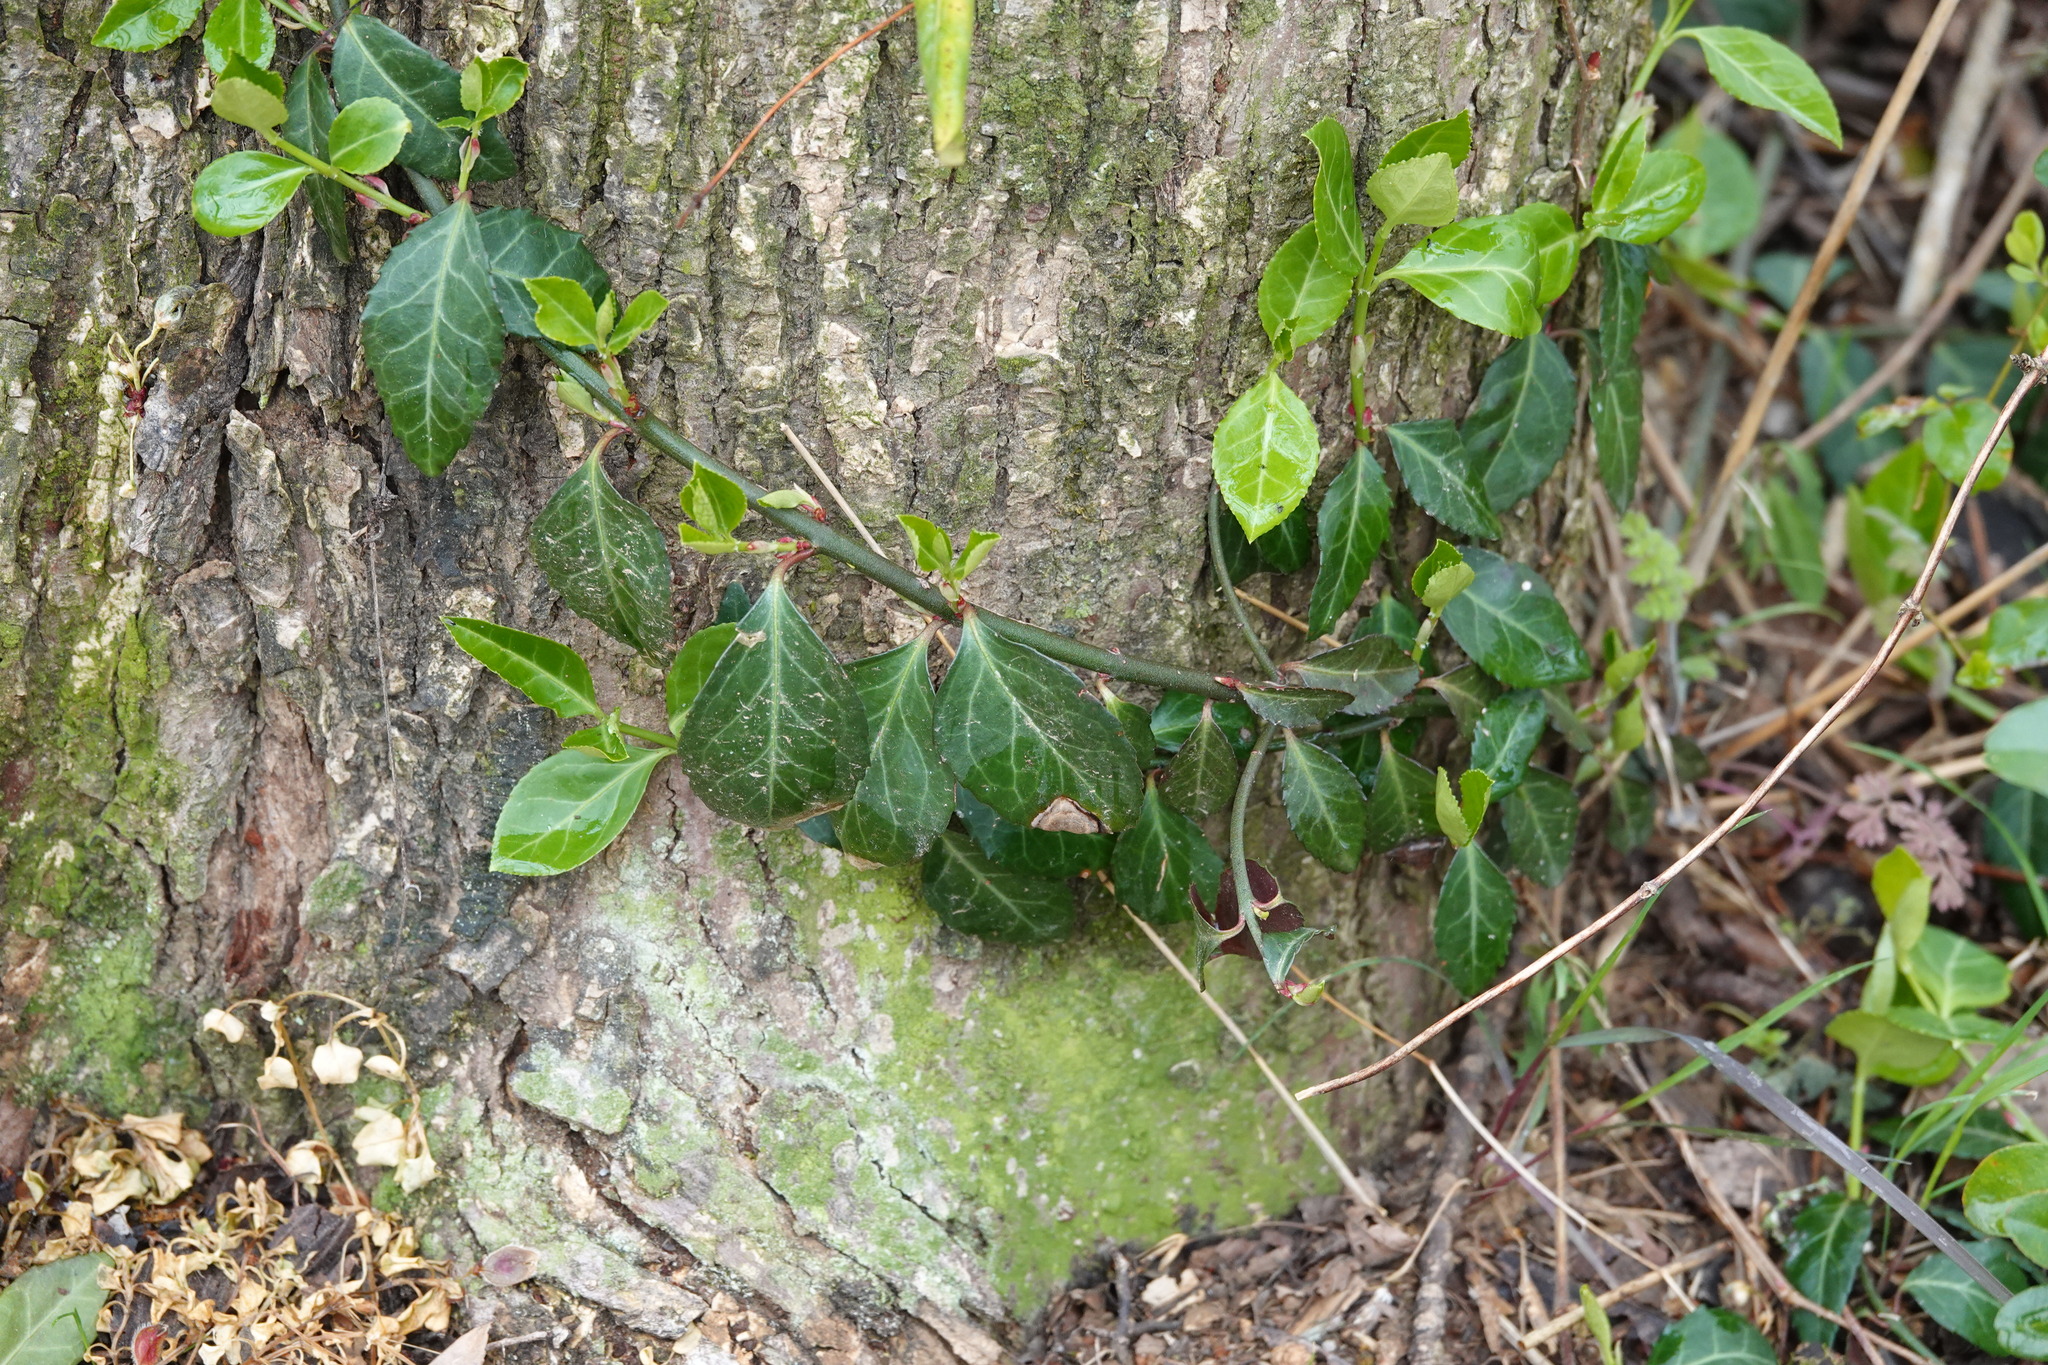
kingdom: Plantae
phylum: Tracheophyta
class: Magnoliopsida
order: Celastrales
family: Celastraceae
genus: Euonymus
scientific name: Euonymus fortunei
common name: Climbing euonymus
